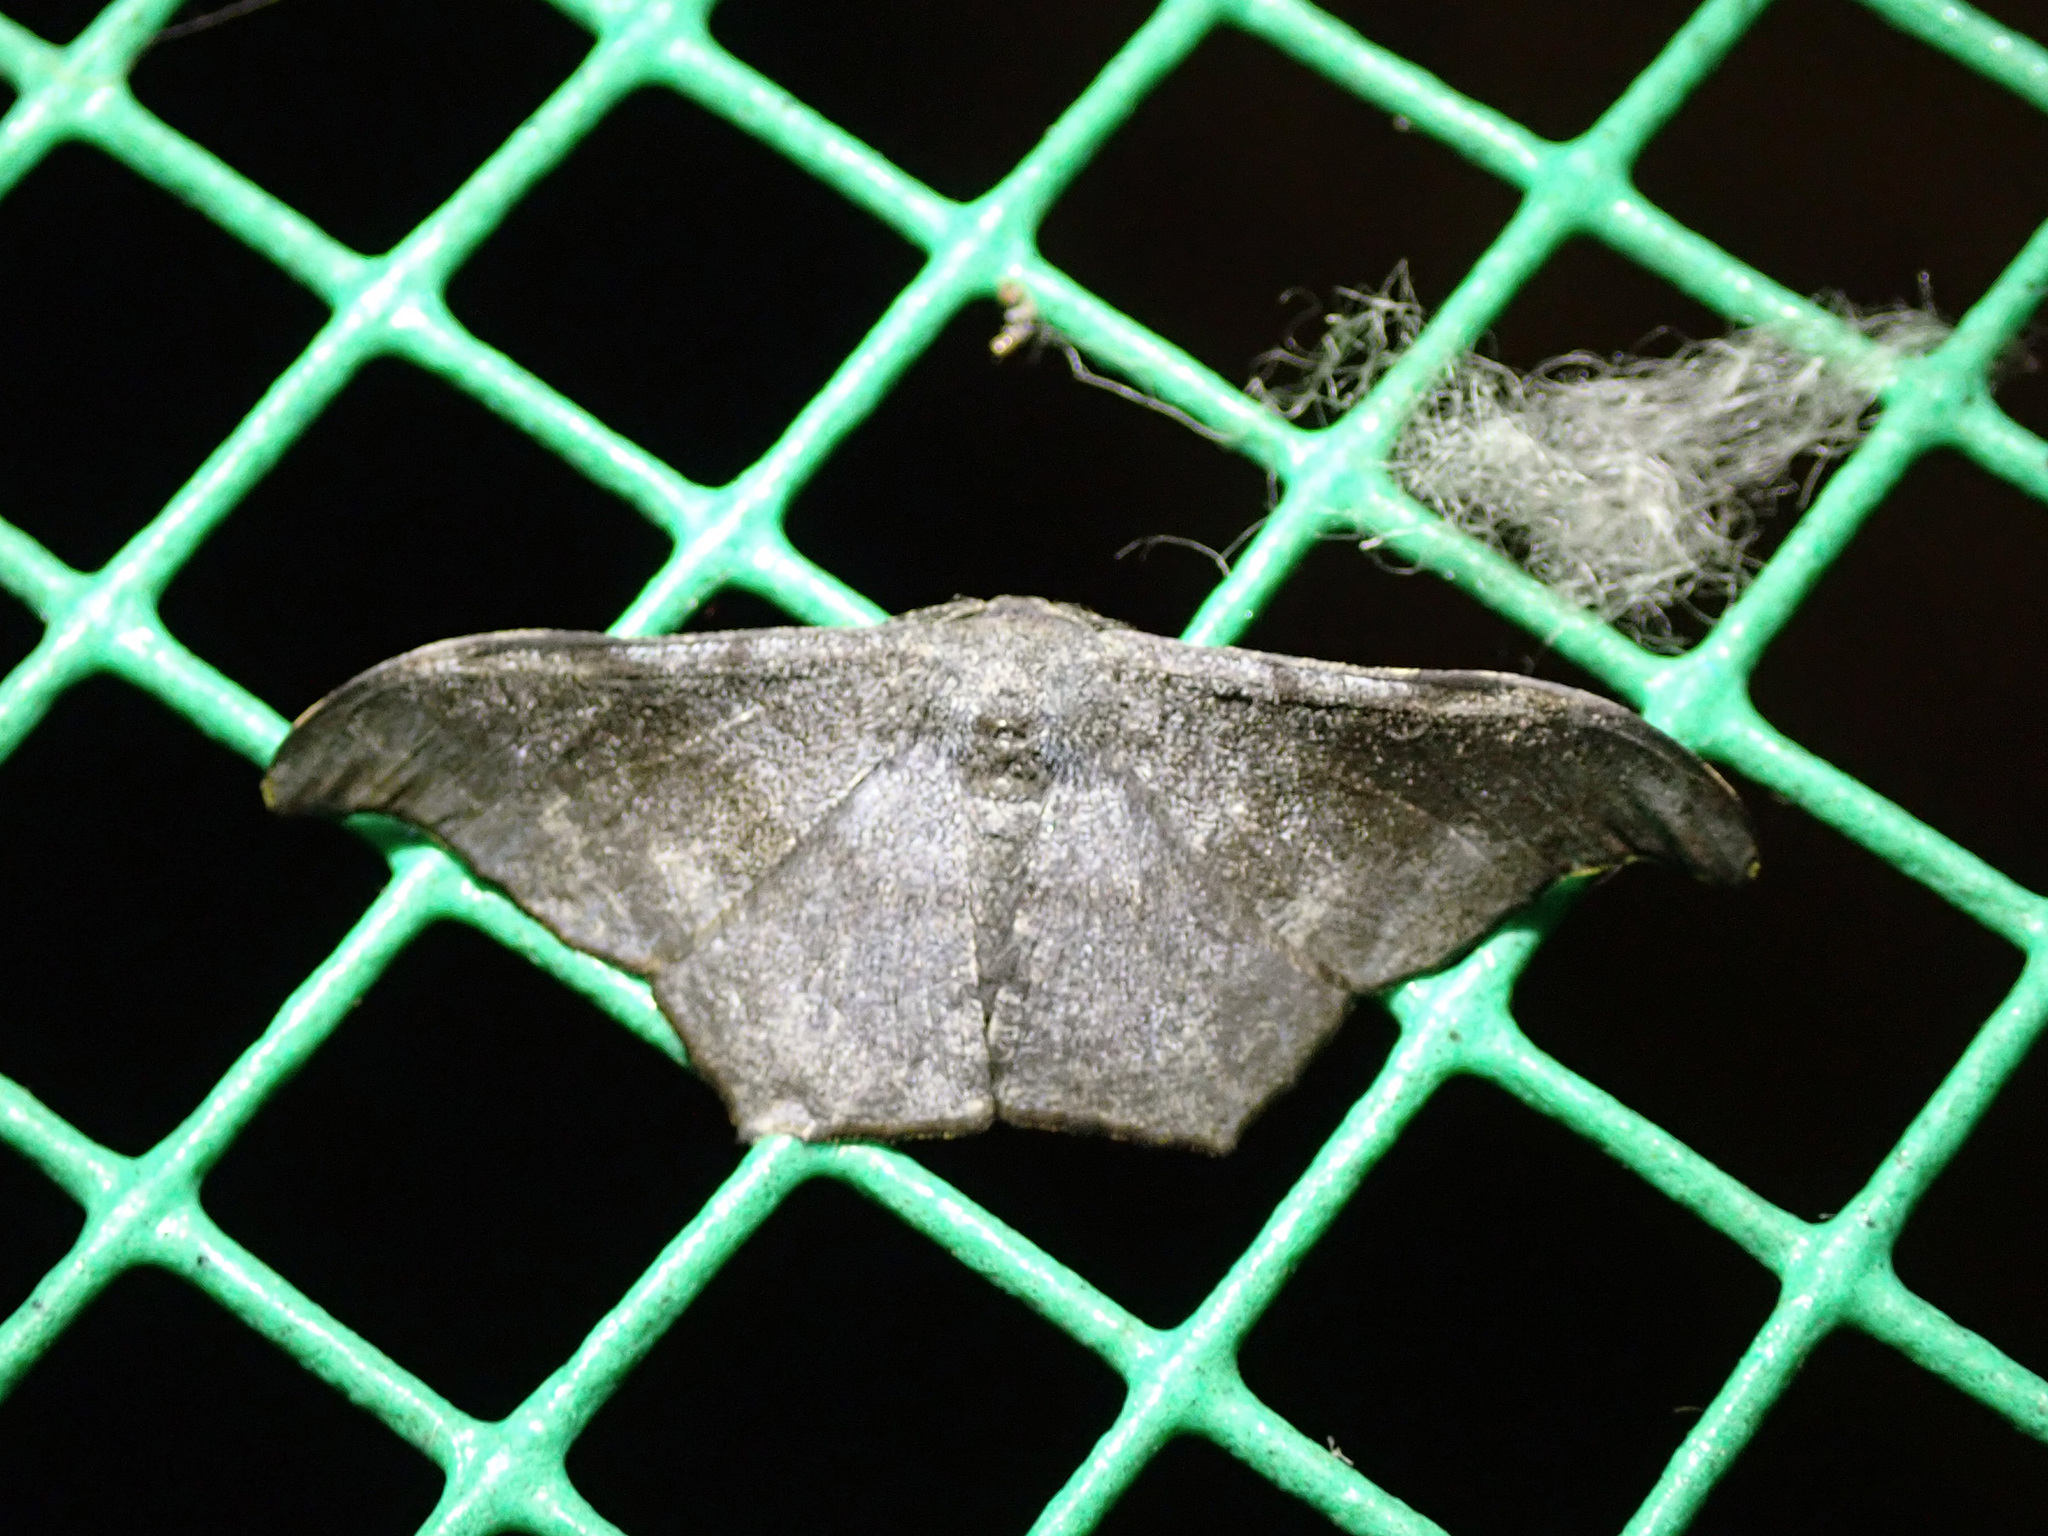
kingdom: Animalia
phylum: Arthropoda
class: Insecta
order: Lepidoptera
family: Geometridae
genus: Hyposidra
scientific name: Hyposidra talaca
